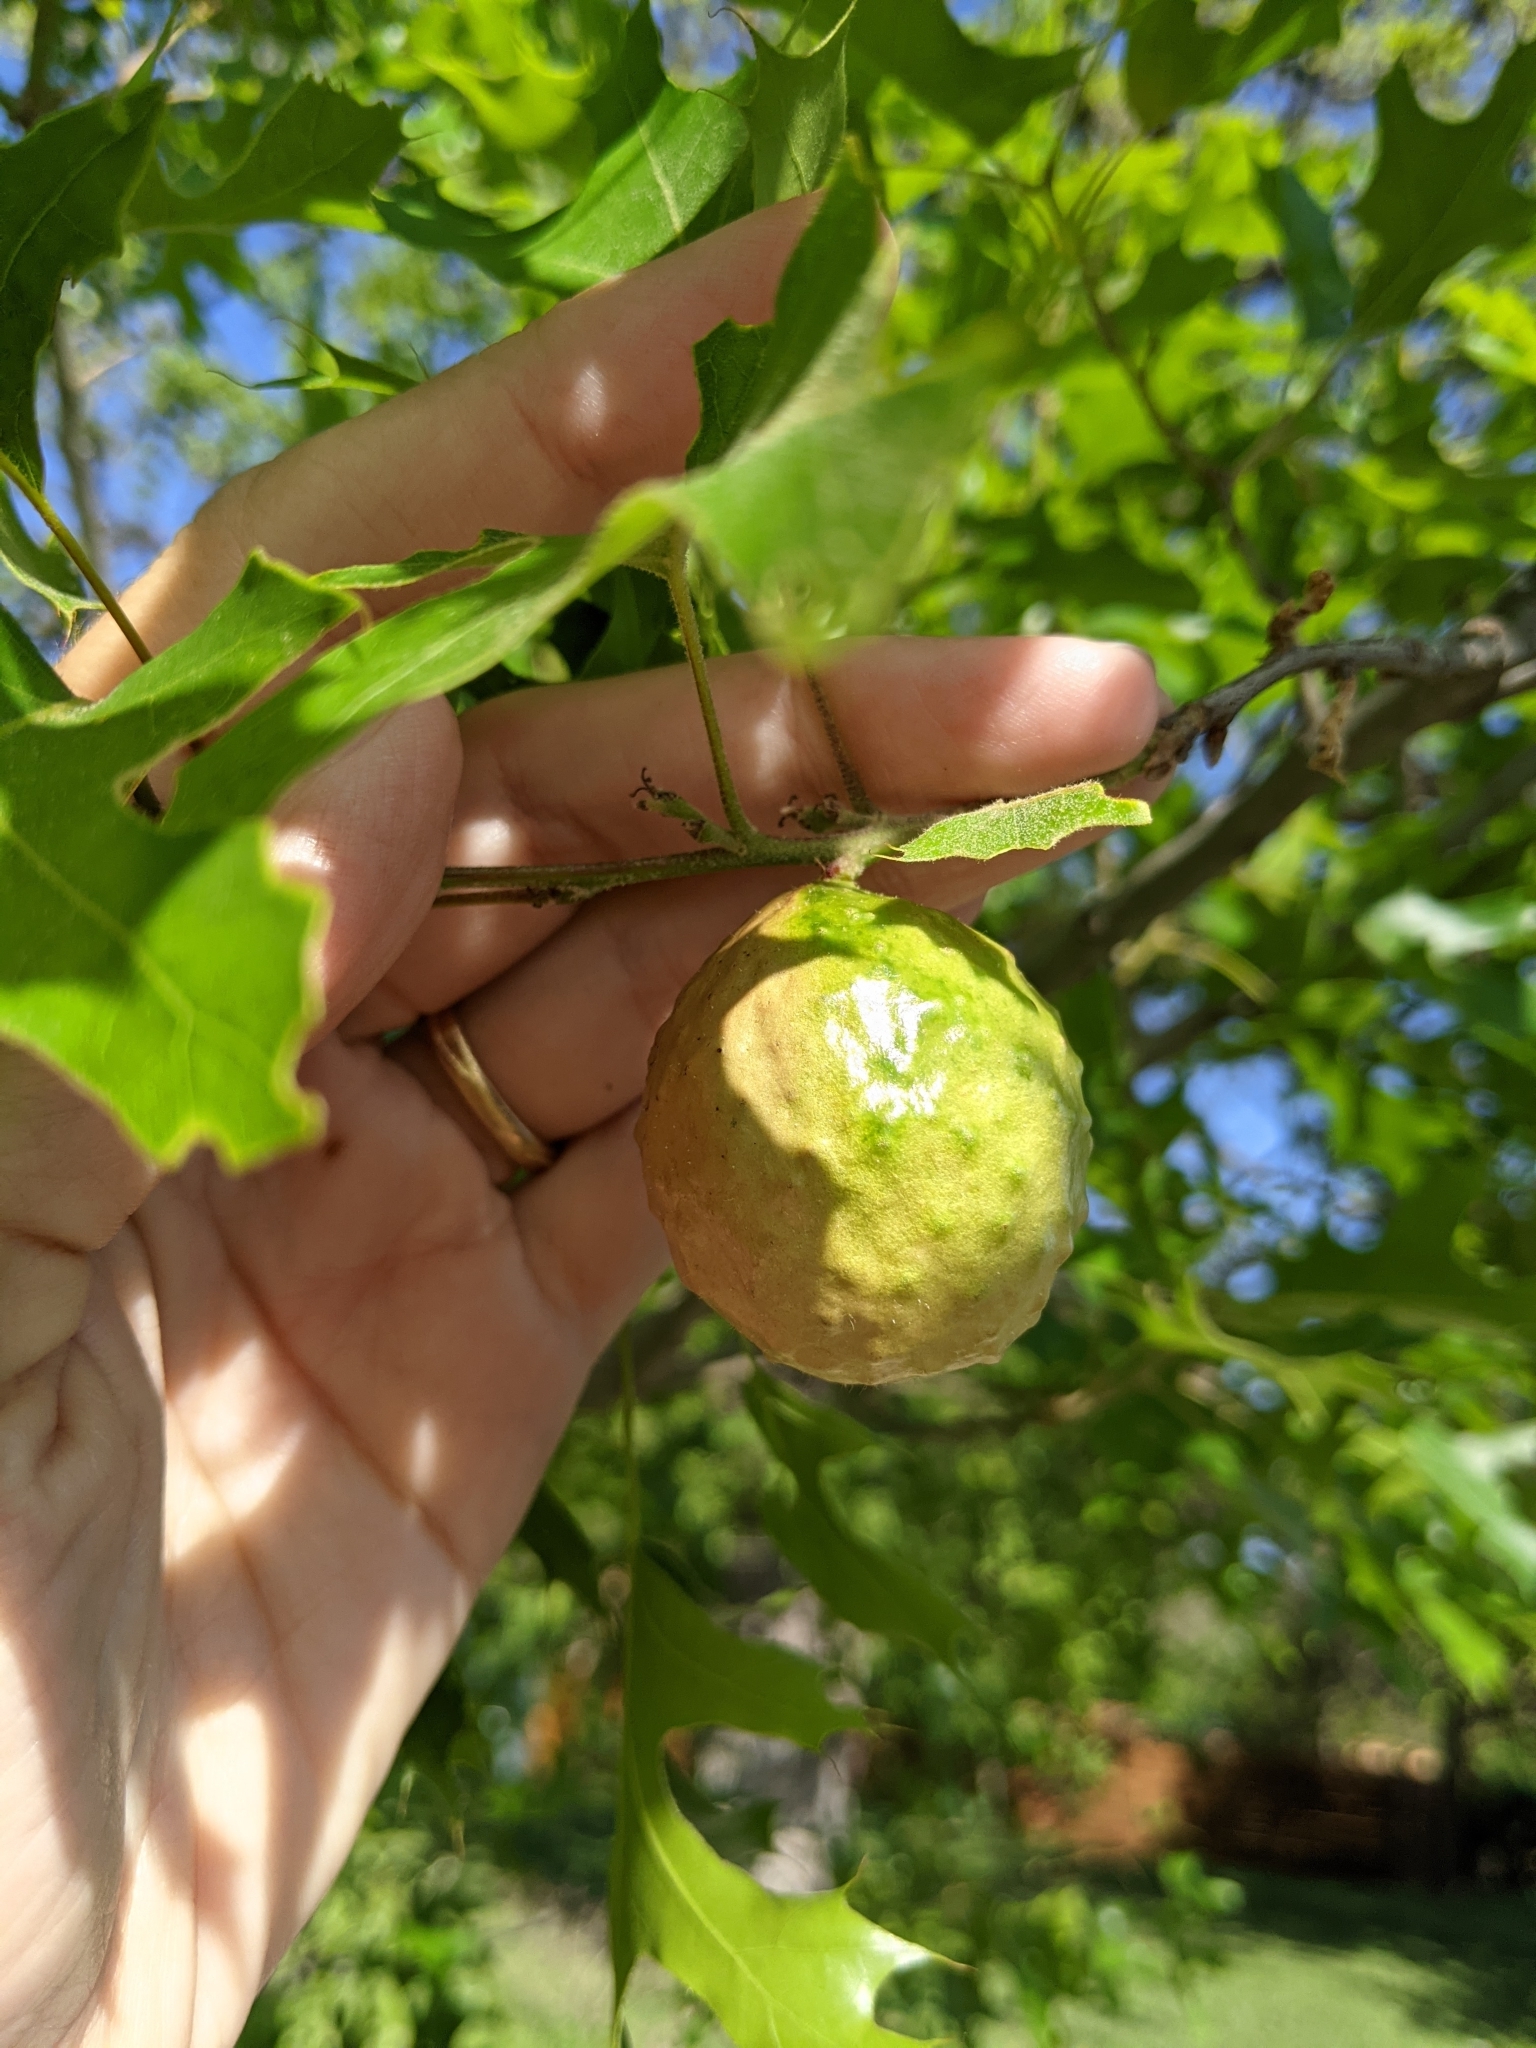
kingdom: Animalia
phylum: Arthropoda
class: Insecta
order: Hymenoptera
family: Cynipidae
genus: Amphibolips
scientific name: Amphibolips
